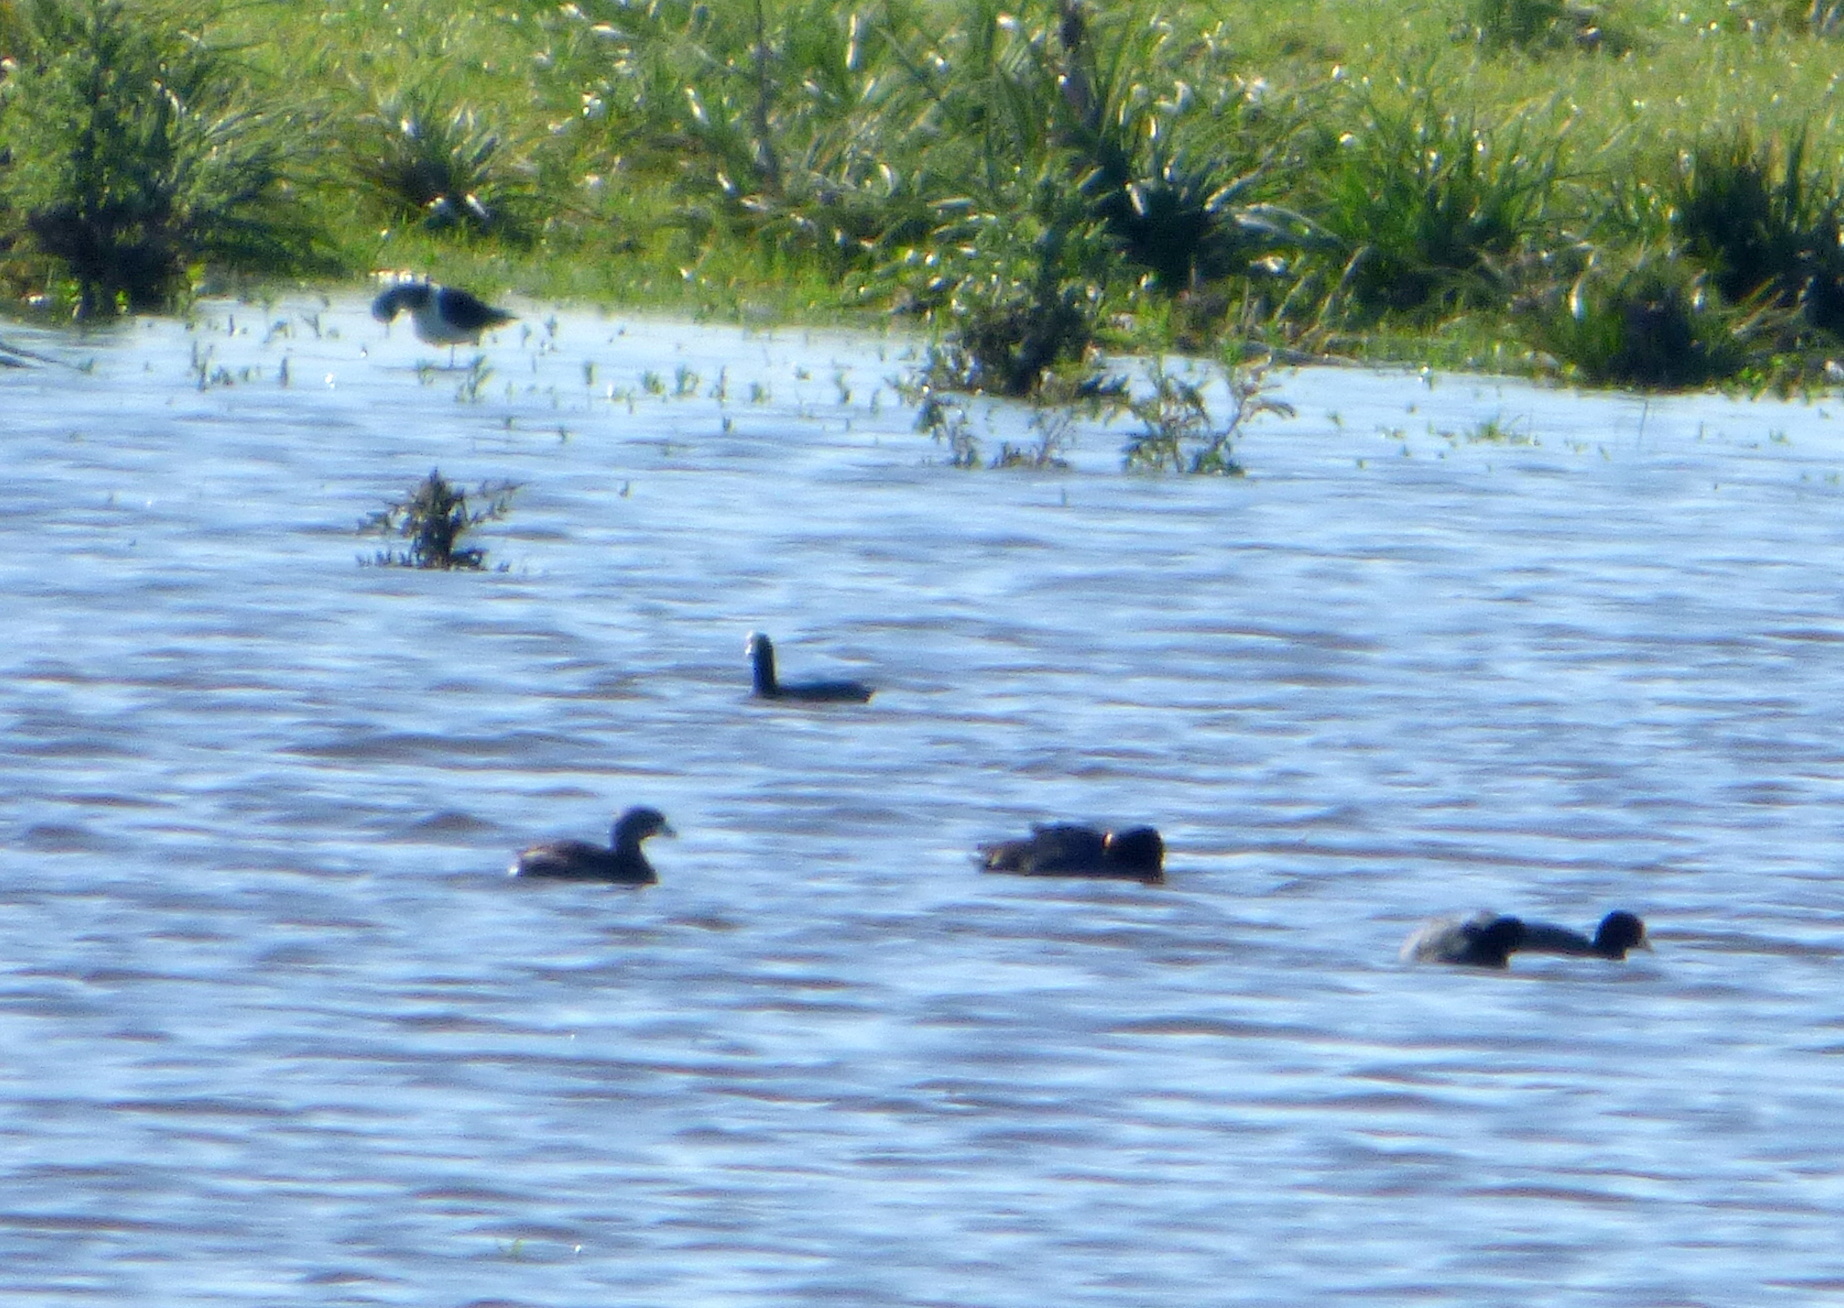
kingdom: Animalia
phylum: Chordata
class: Aves
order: Podicipediformes
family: Podicipedidae
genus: Podilymbus
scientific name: Podilymbus podiceps
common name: Pied-billed grebe
